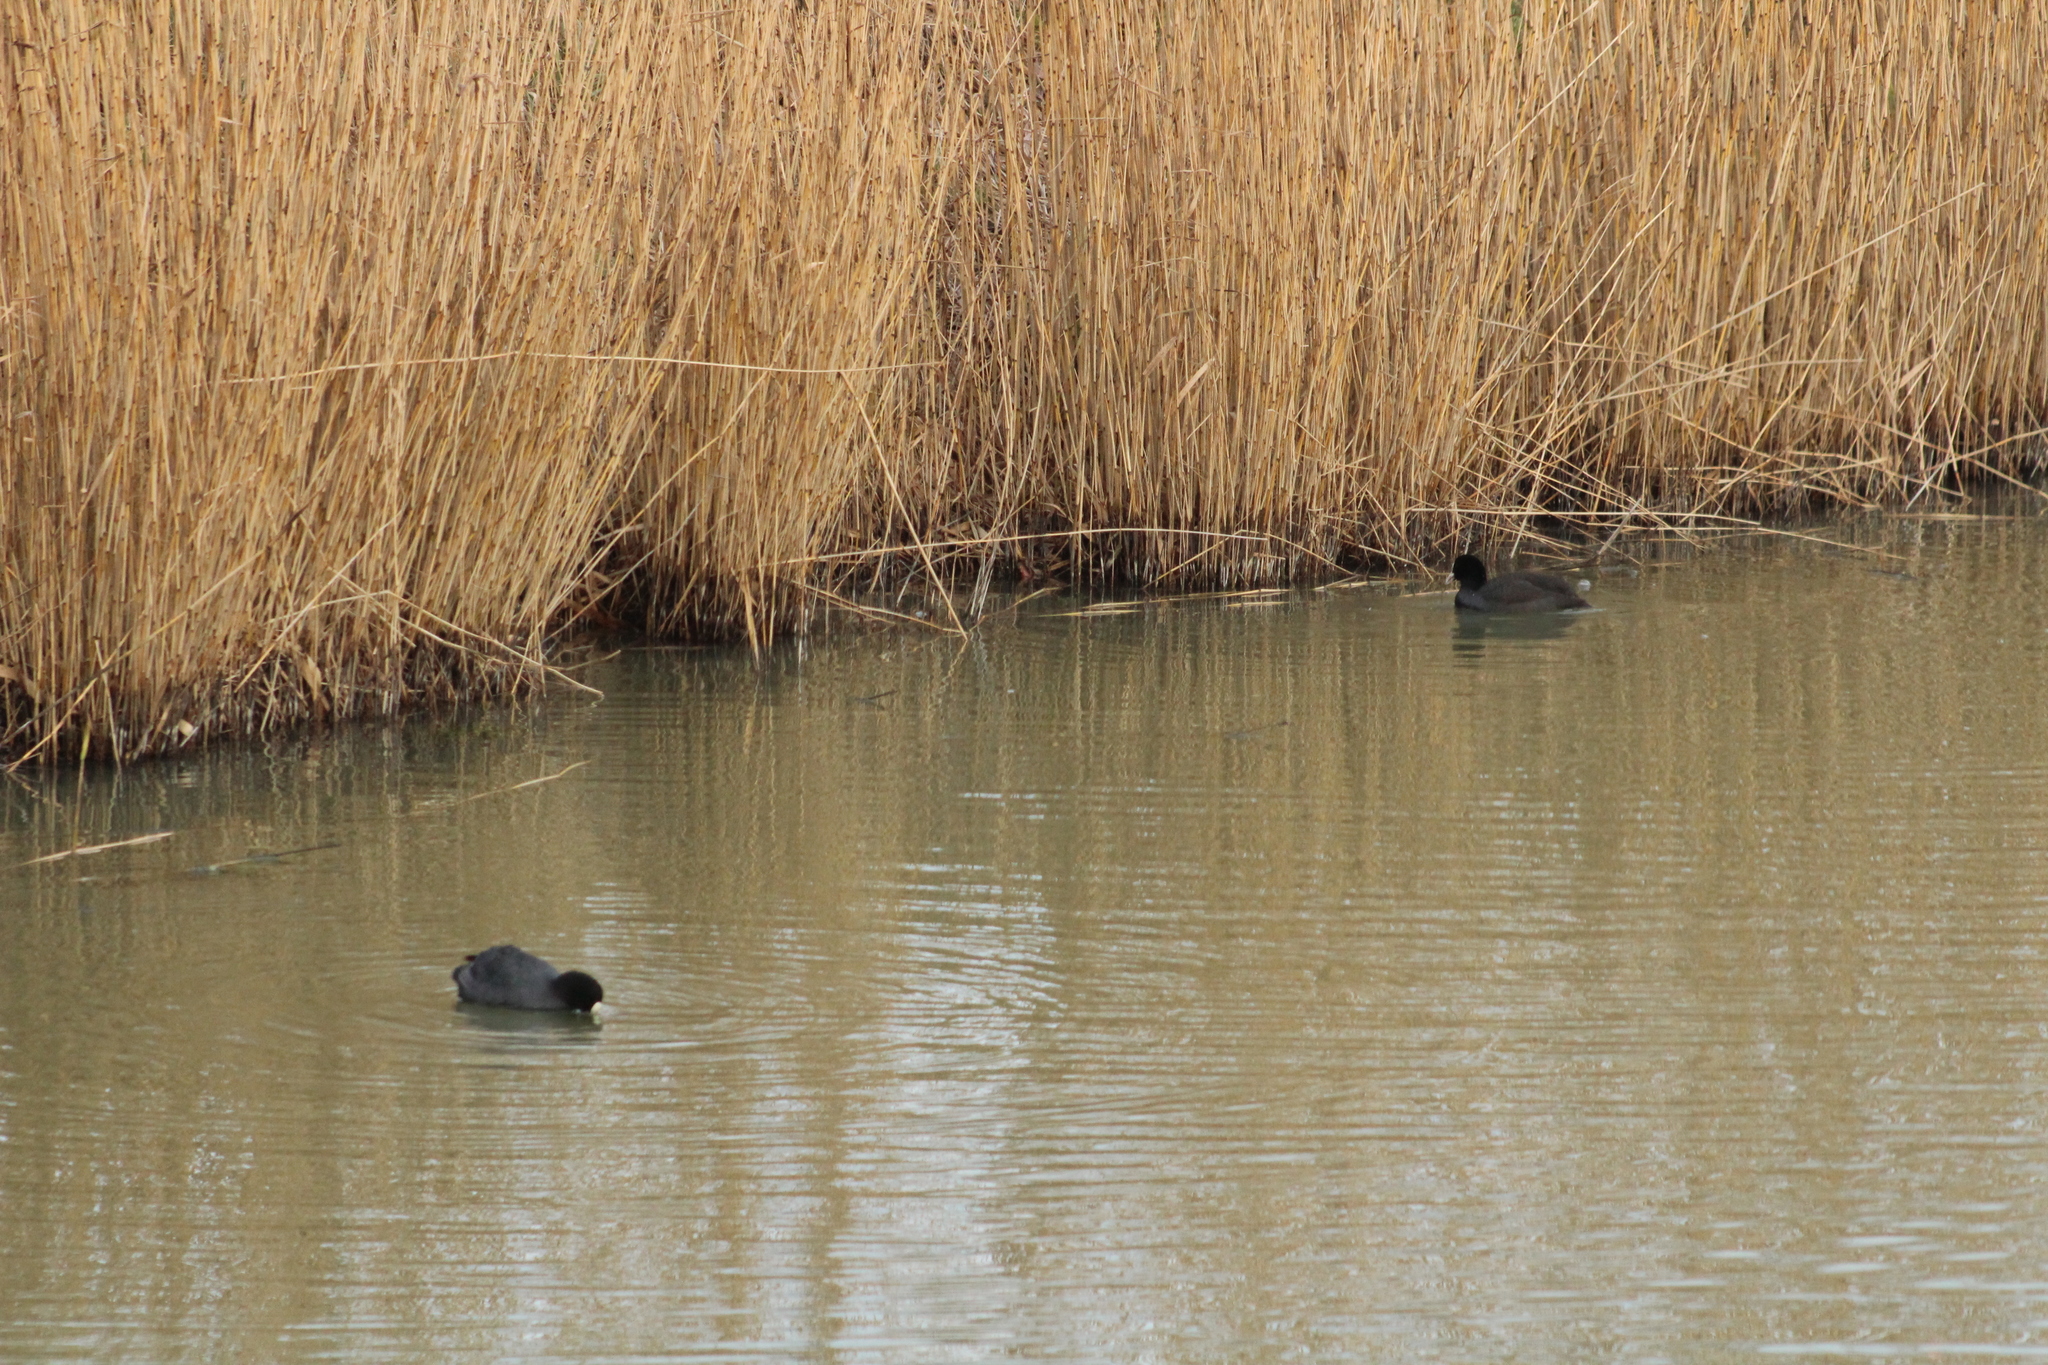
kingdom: Animalia
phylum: Chordata
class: Aves
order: Gruiformes
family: Rallidae
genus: Fulica
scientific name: Fulica atra
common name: Eurasian coot
